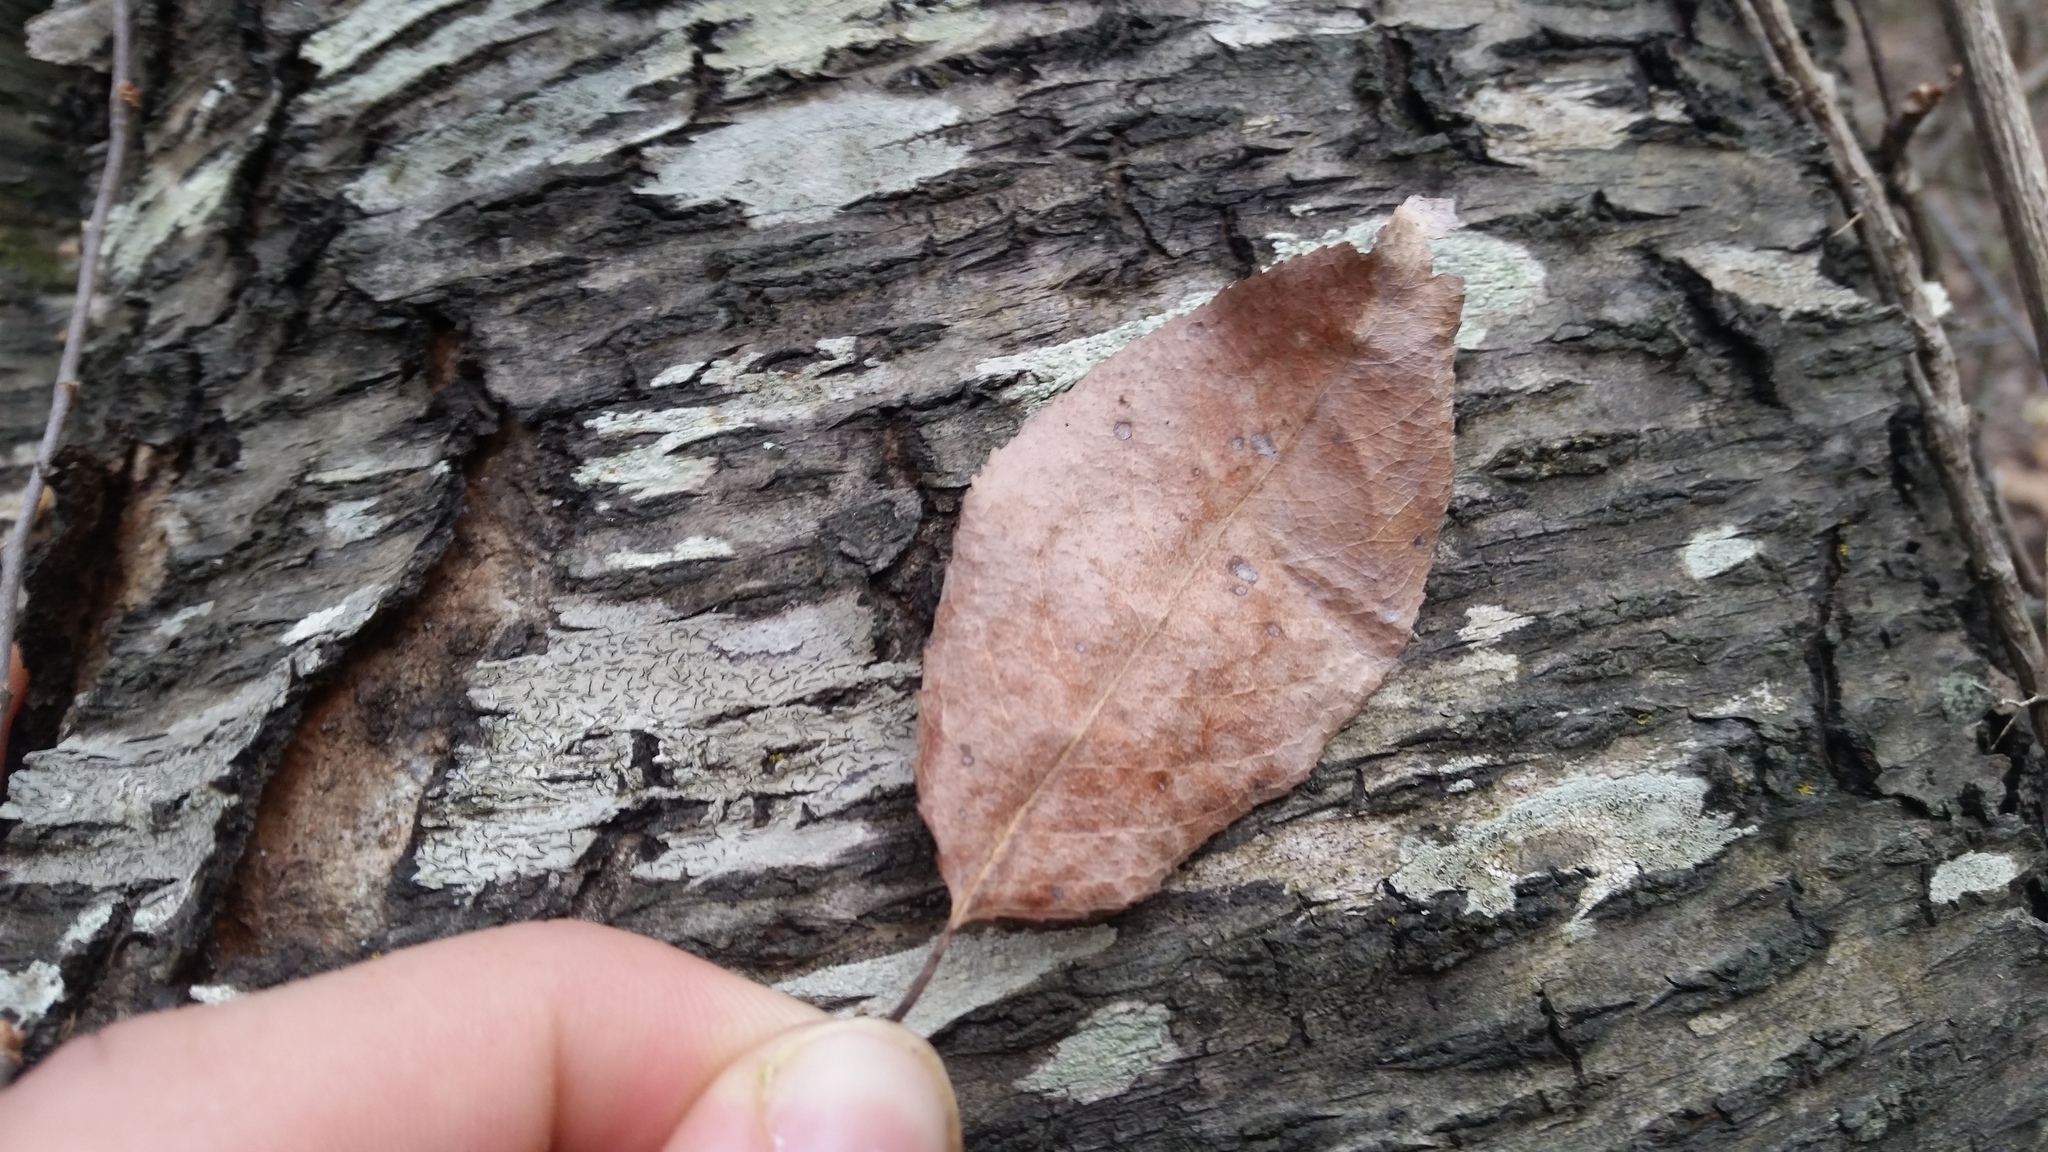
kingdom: Plantae
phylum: Tracheophyta
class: Magnoliopsida
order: Rosales
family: Rosaceae
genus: Prunus
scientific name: Prunus serotina
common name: Black cherry
